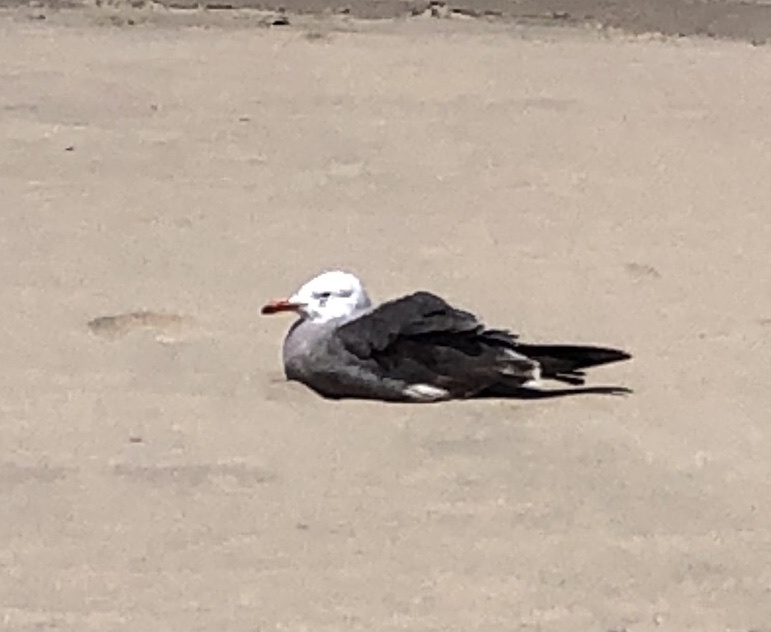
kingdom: Animalia
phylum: Chordata
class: Aves
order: Charadriiformes
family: Laridae
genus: Larus
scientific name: Larus heermanni
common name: Heermann's gull
